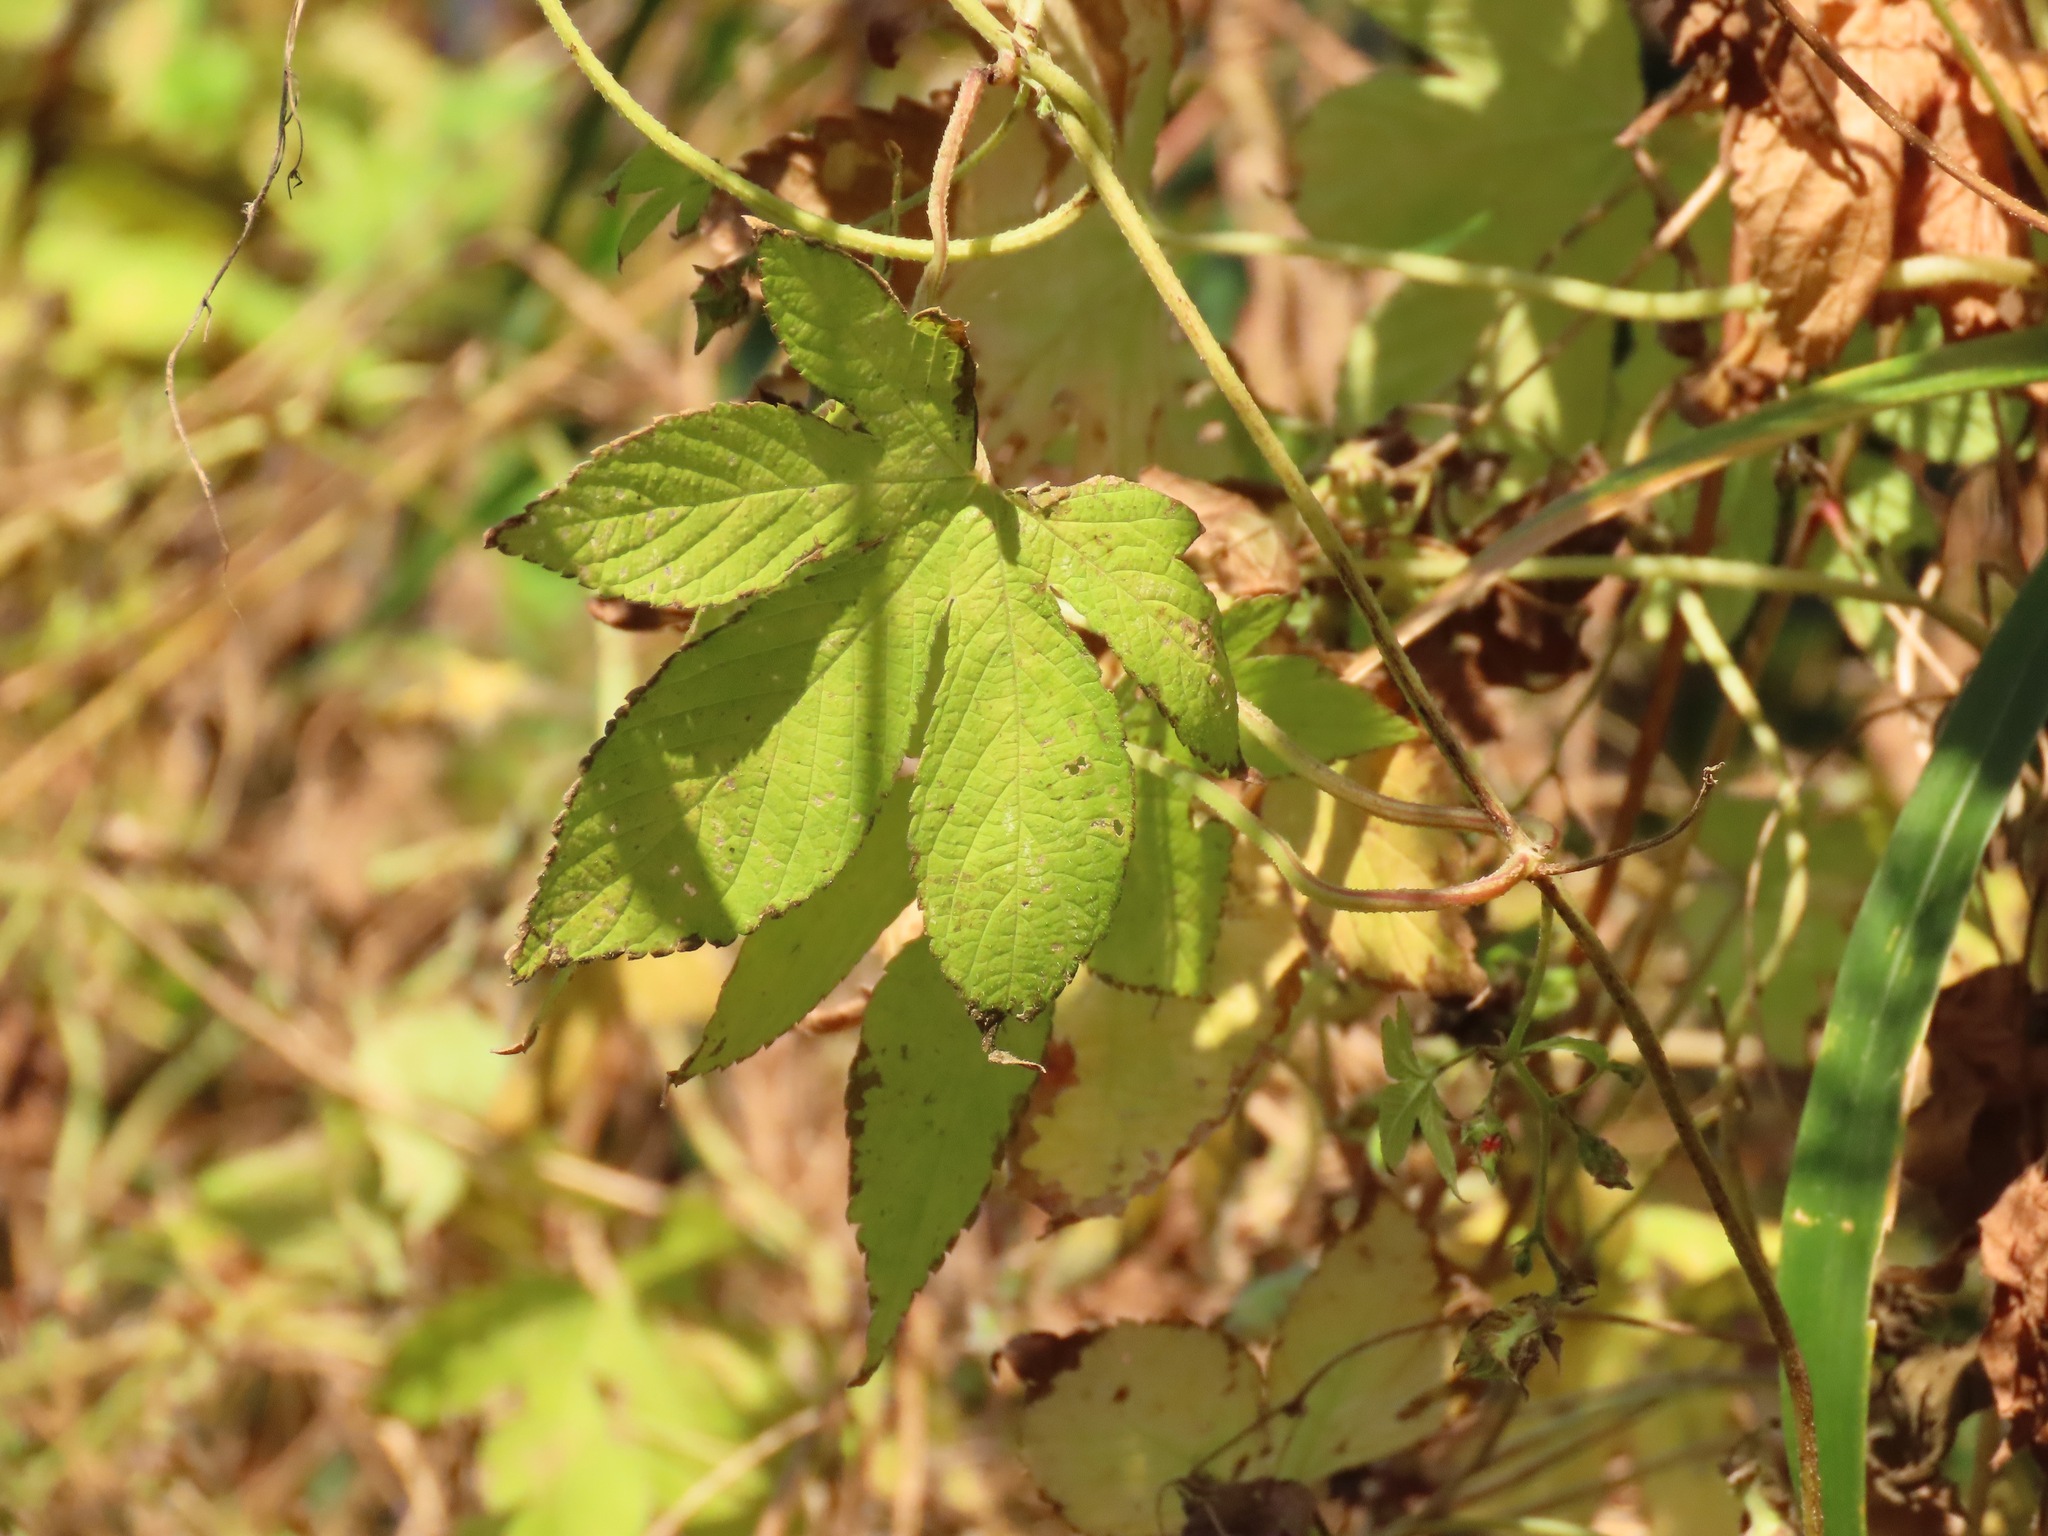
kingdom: Plantae
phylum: Tracheophyta
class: Magnoliopsida
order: Rosales
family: Cannabaceae
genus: Humulus
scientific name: Humulus scandens
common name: Japanese hop
